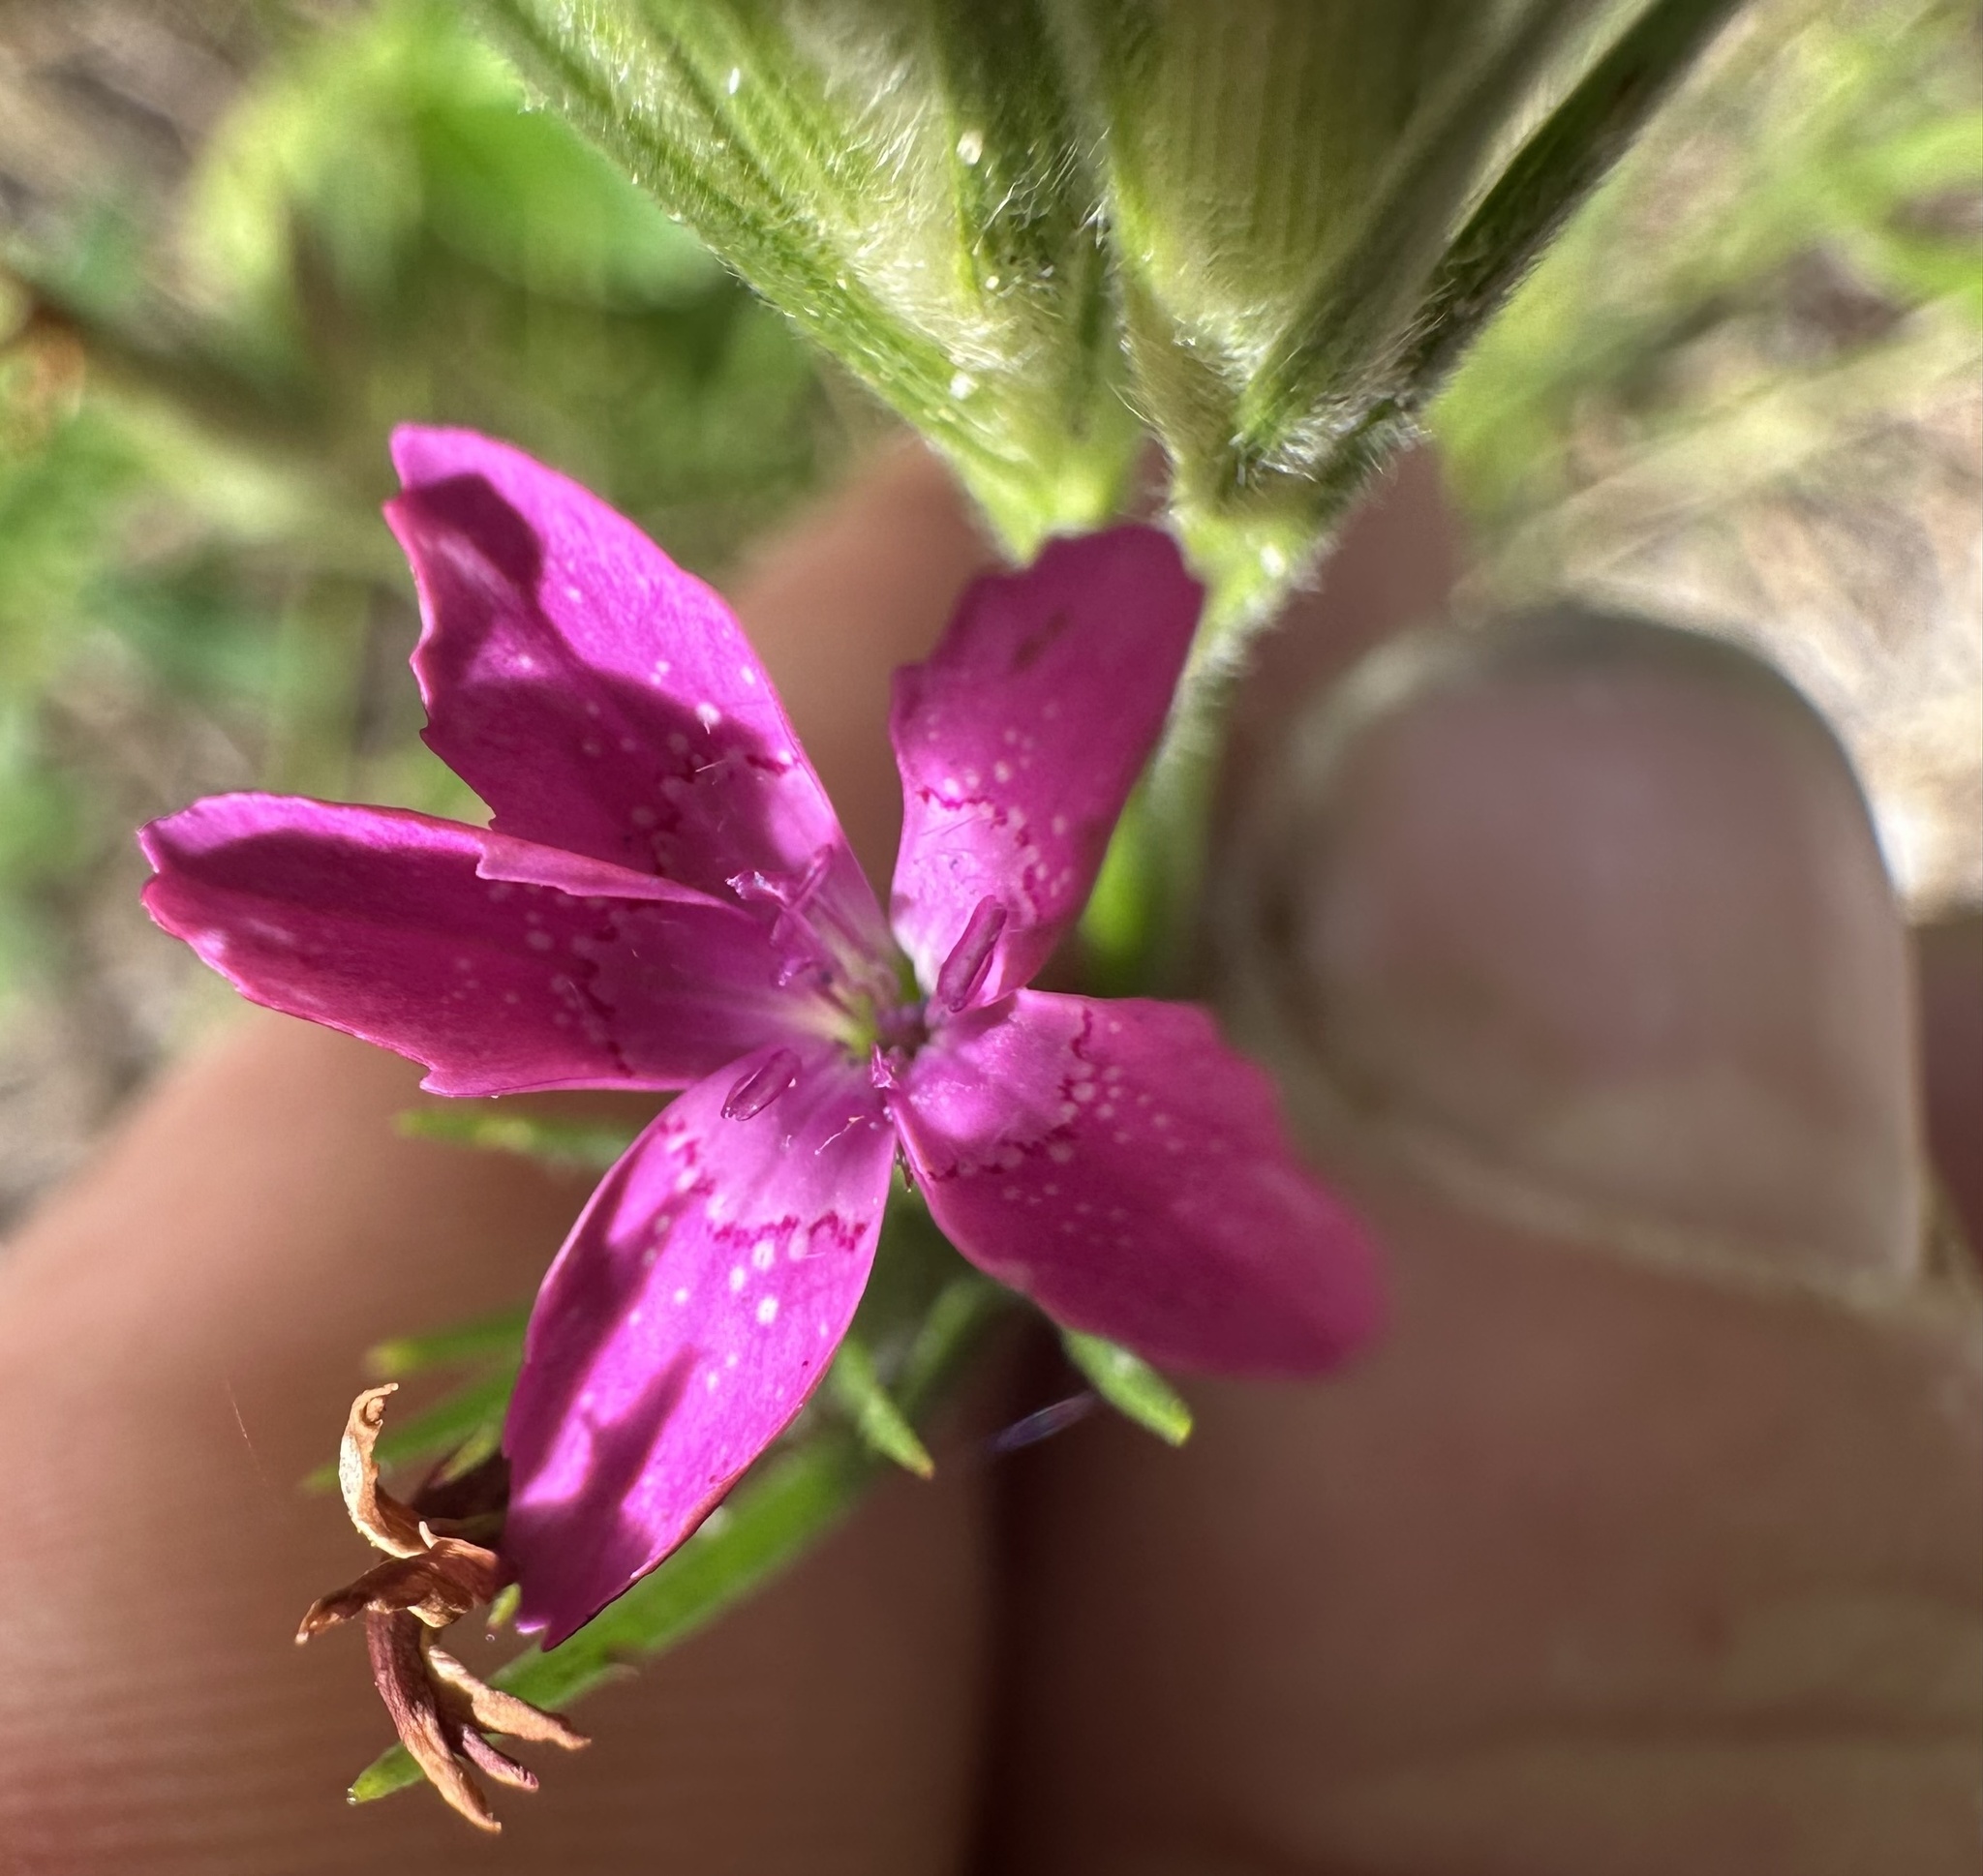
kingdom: Plantae
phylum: Tracheophyta
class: Magnoliopsida
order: Caryophyllales
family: Caryophyllaceae
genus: Dianthus
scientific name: Dianthus armeria
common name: Deptford pink
